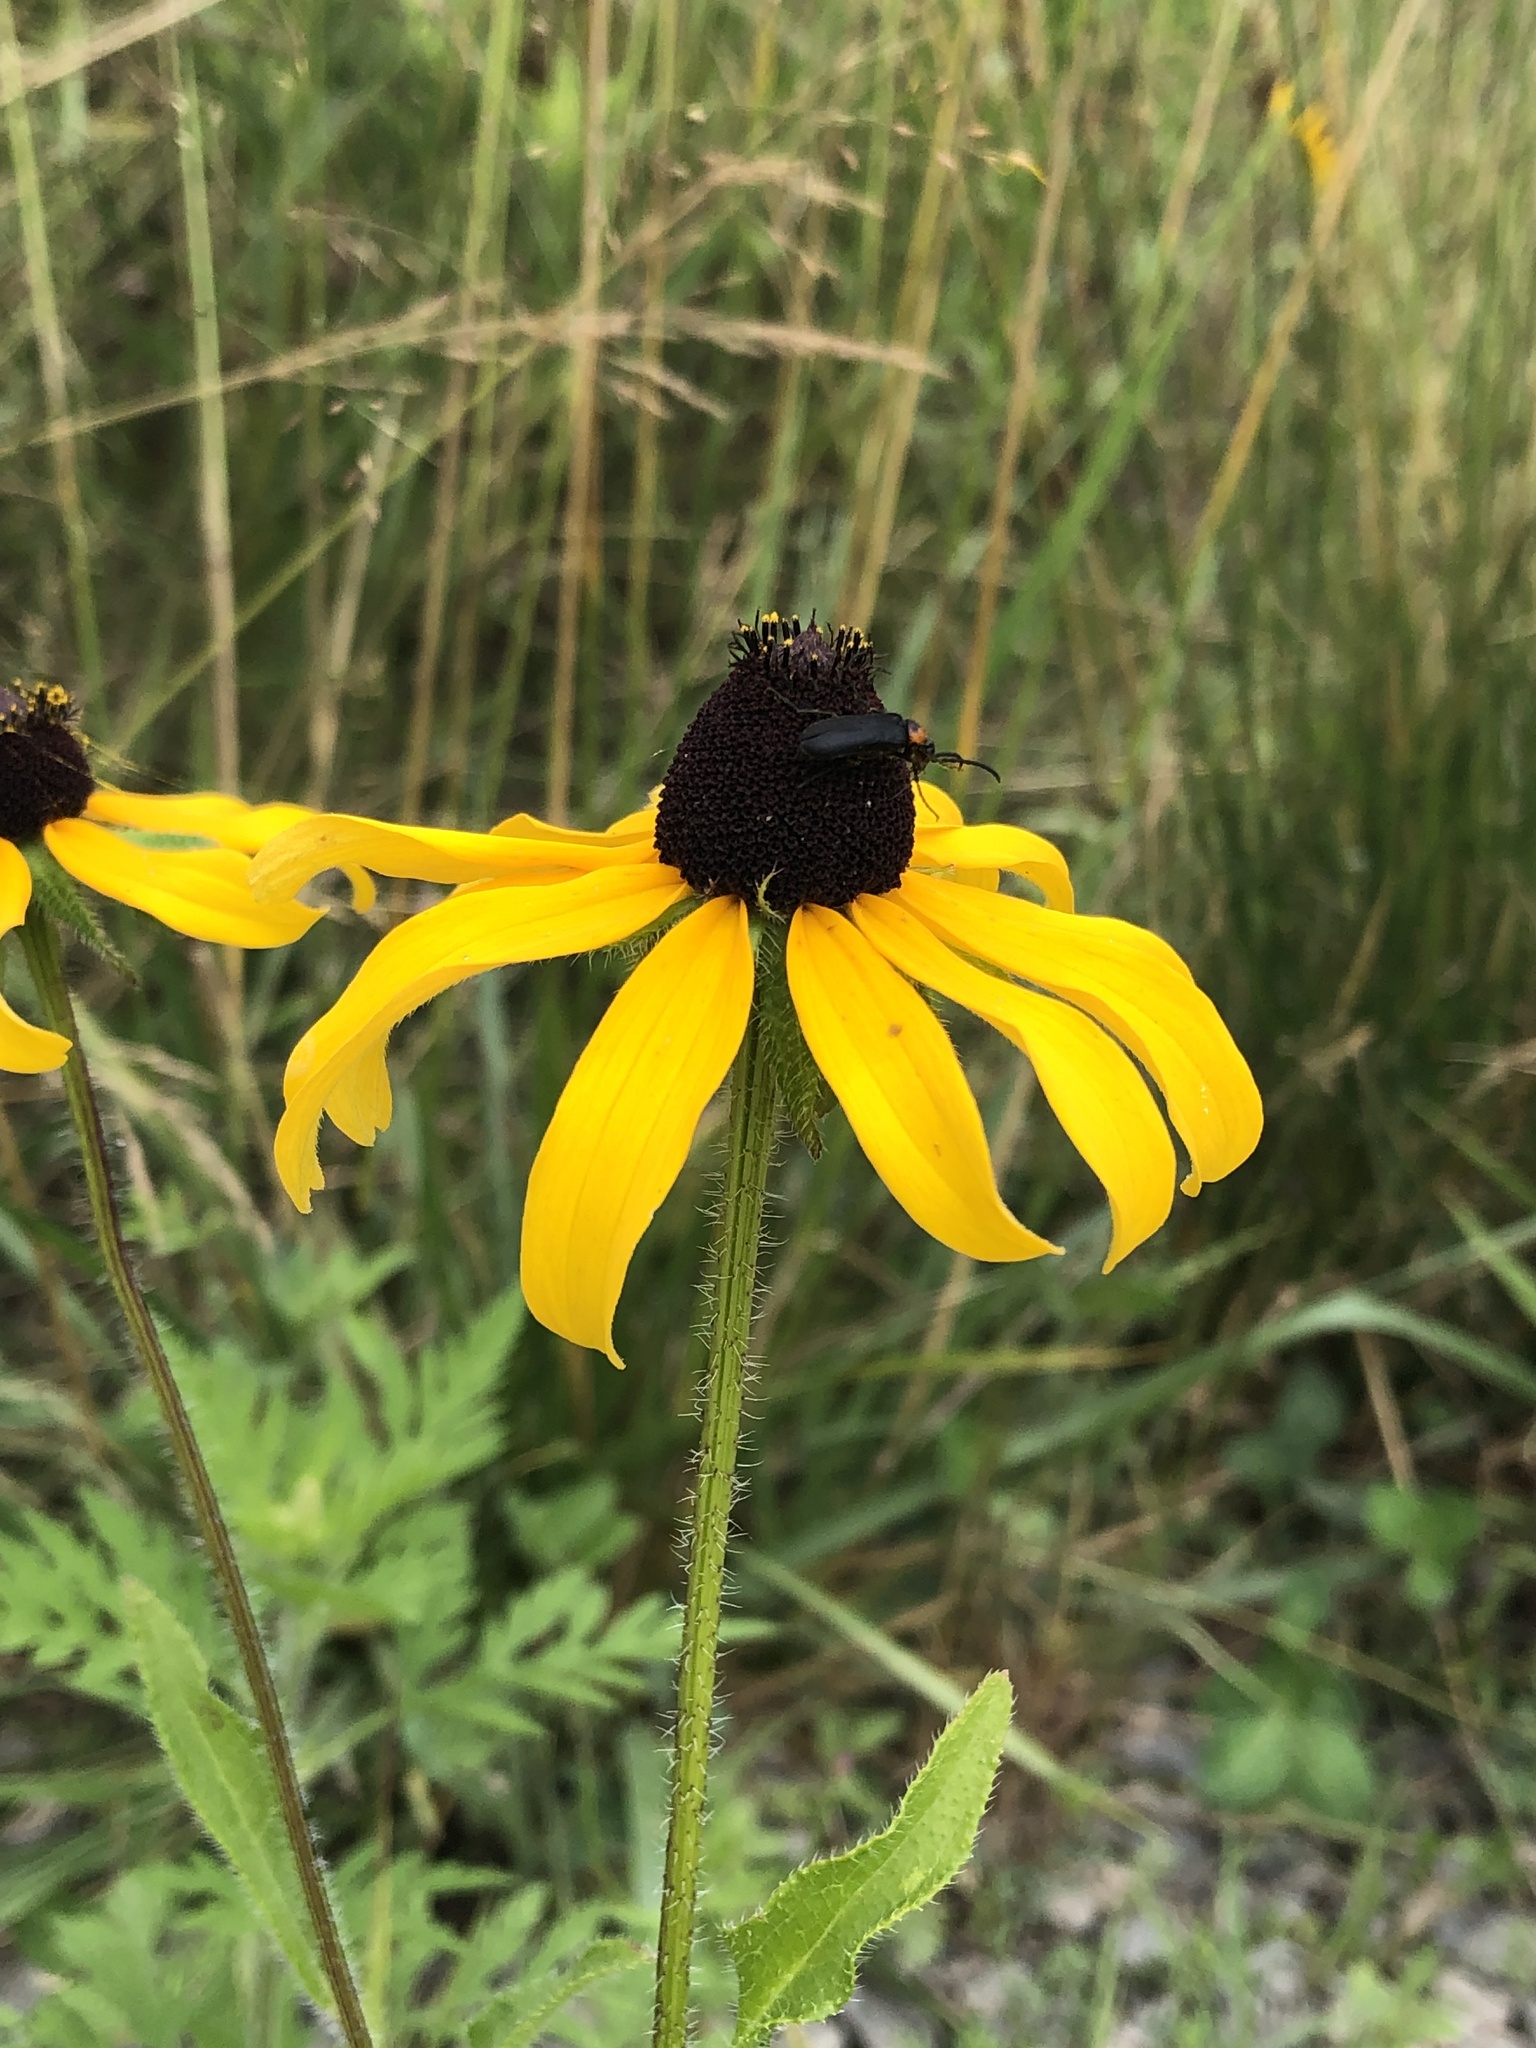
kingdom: Plantae
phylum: Tracheophyta
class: Magnoliopsida
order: Asterales
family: Asteraceae
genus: Rudbeckia
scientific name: Rudbeckia hirta
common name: Black-eyed-susan
